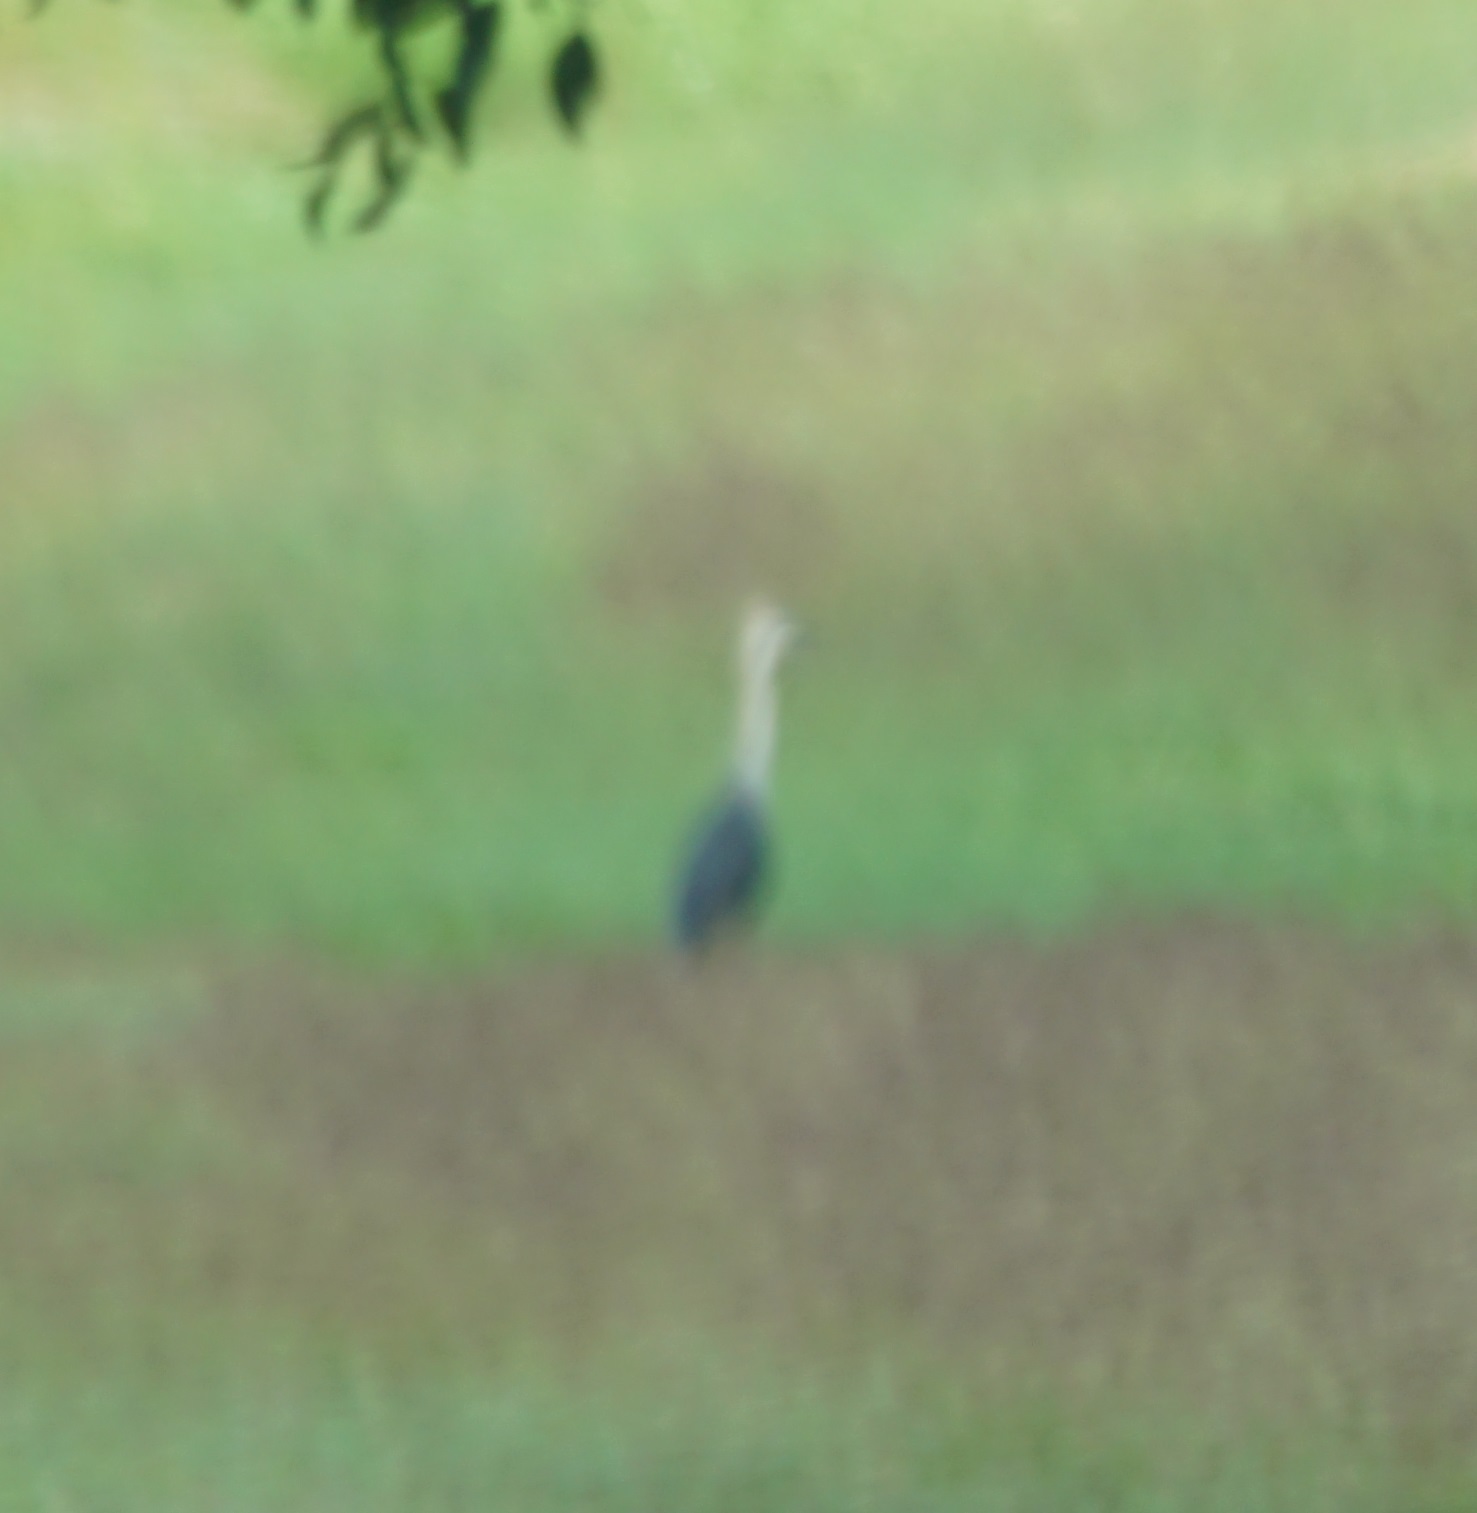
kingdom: Animalia
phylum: Chordata
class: Aves
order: Pelecaniformes
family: Ardeidae
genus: Ardea
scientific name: Ardea pacifica
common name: White-necked heron
